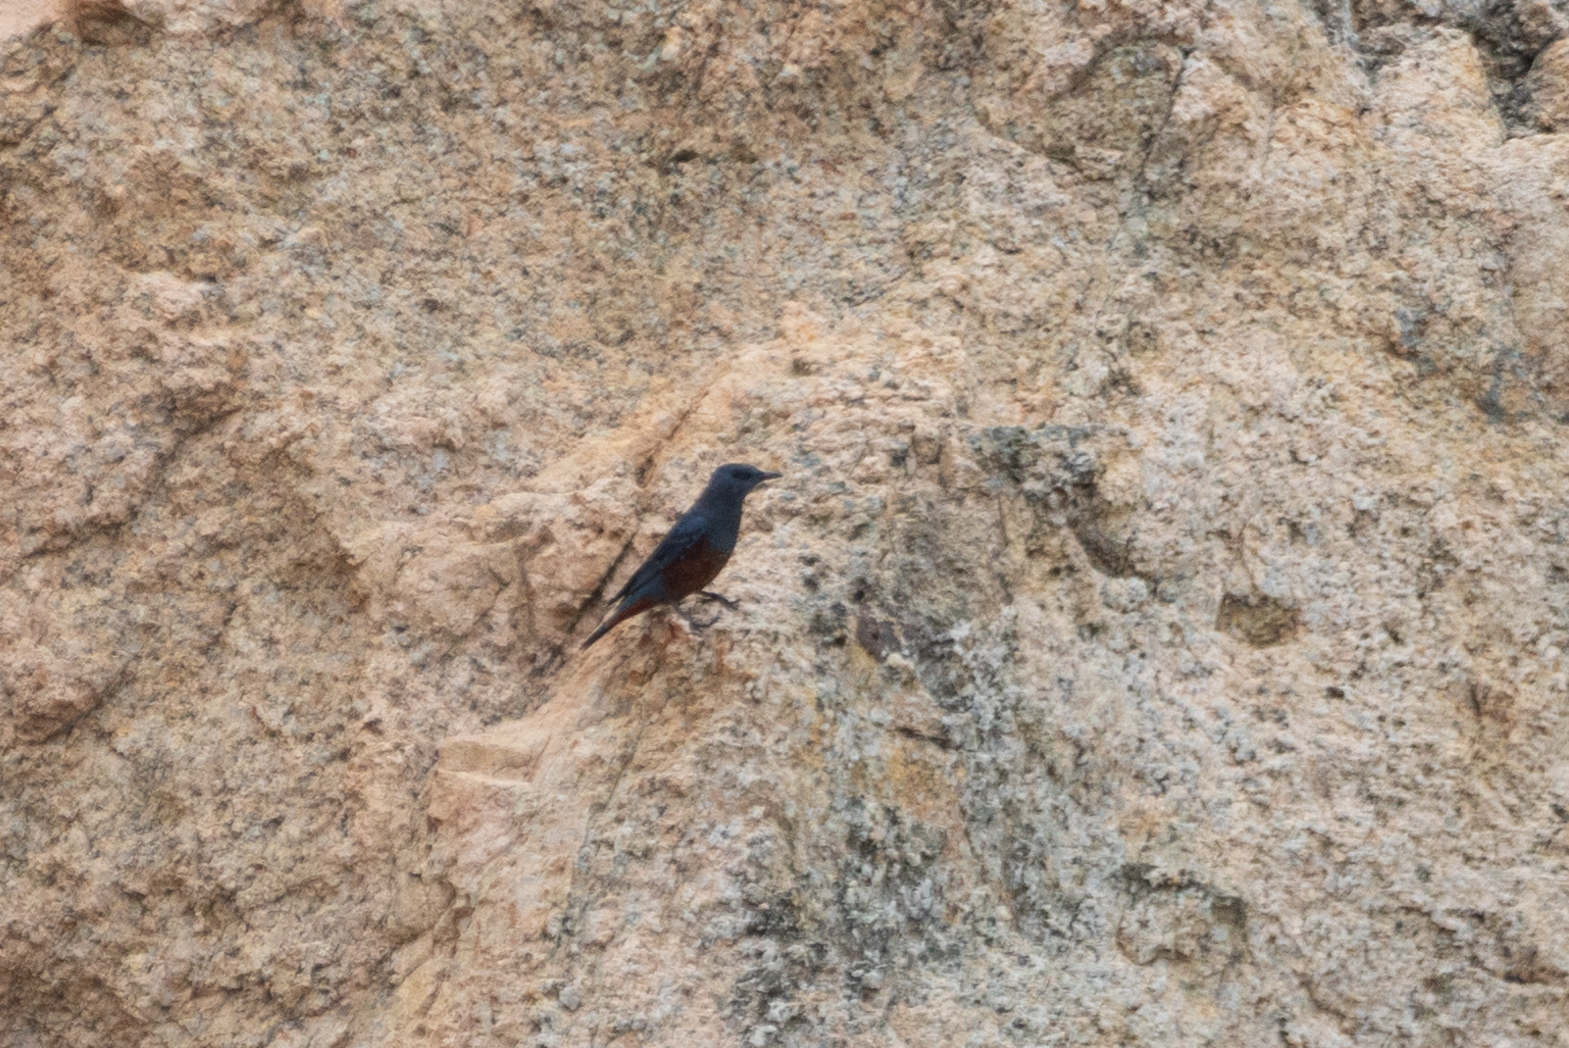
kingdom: Animalia
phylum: Chordata
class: Aves
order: Passeriformes
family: Muscicapidae
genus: Monticola
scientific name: Monticola solitarius
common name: Blue rock thrush
